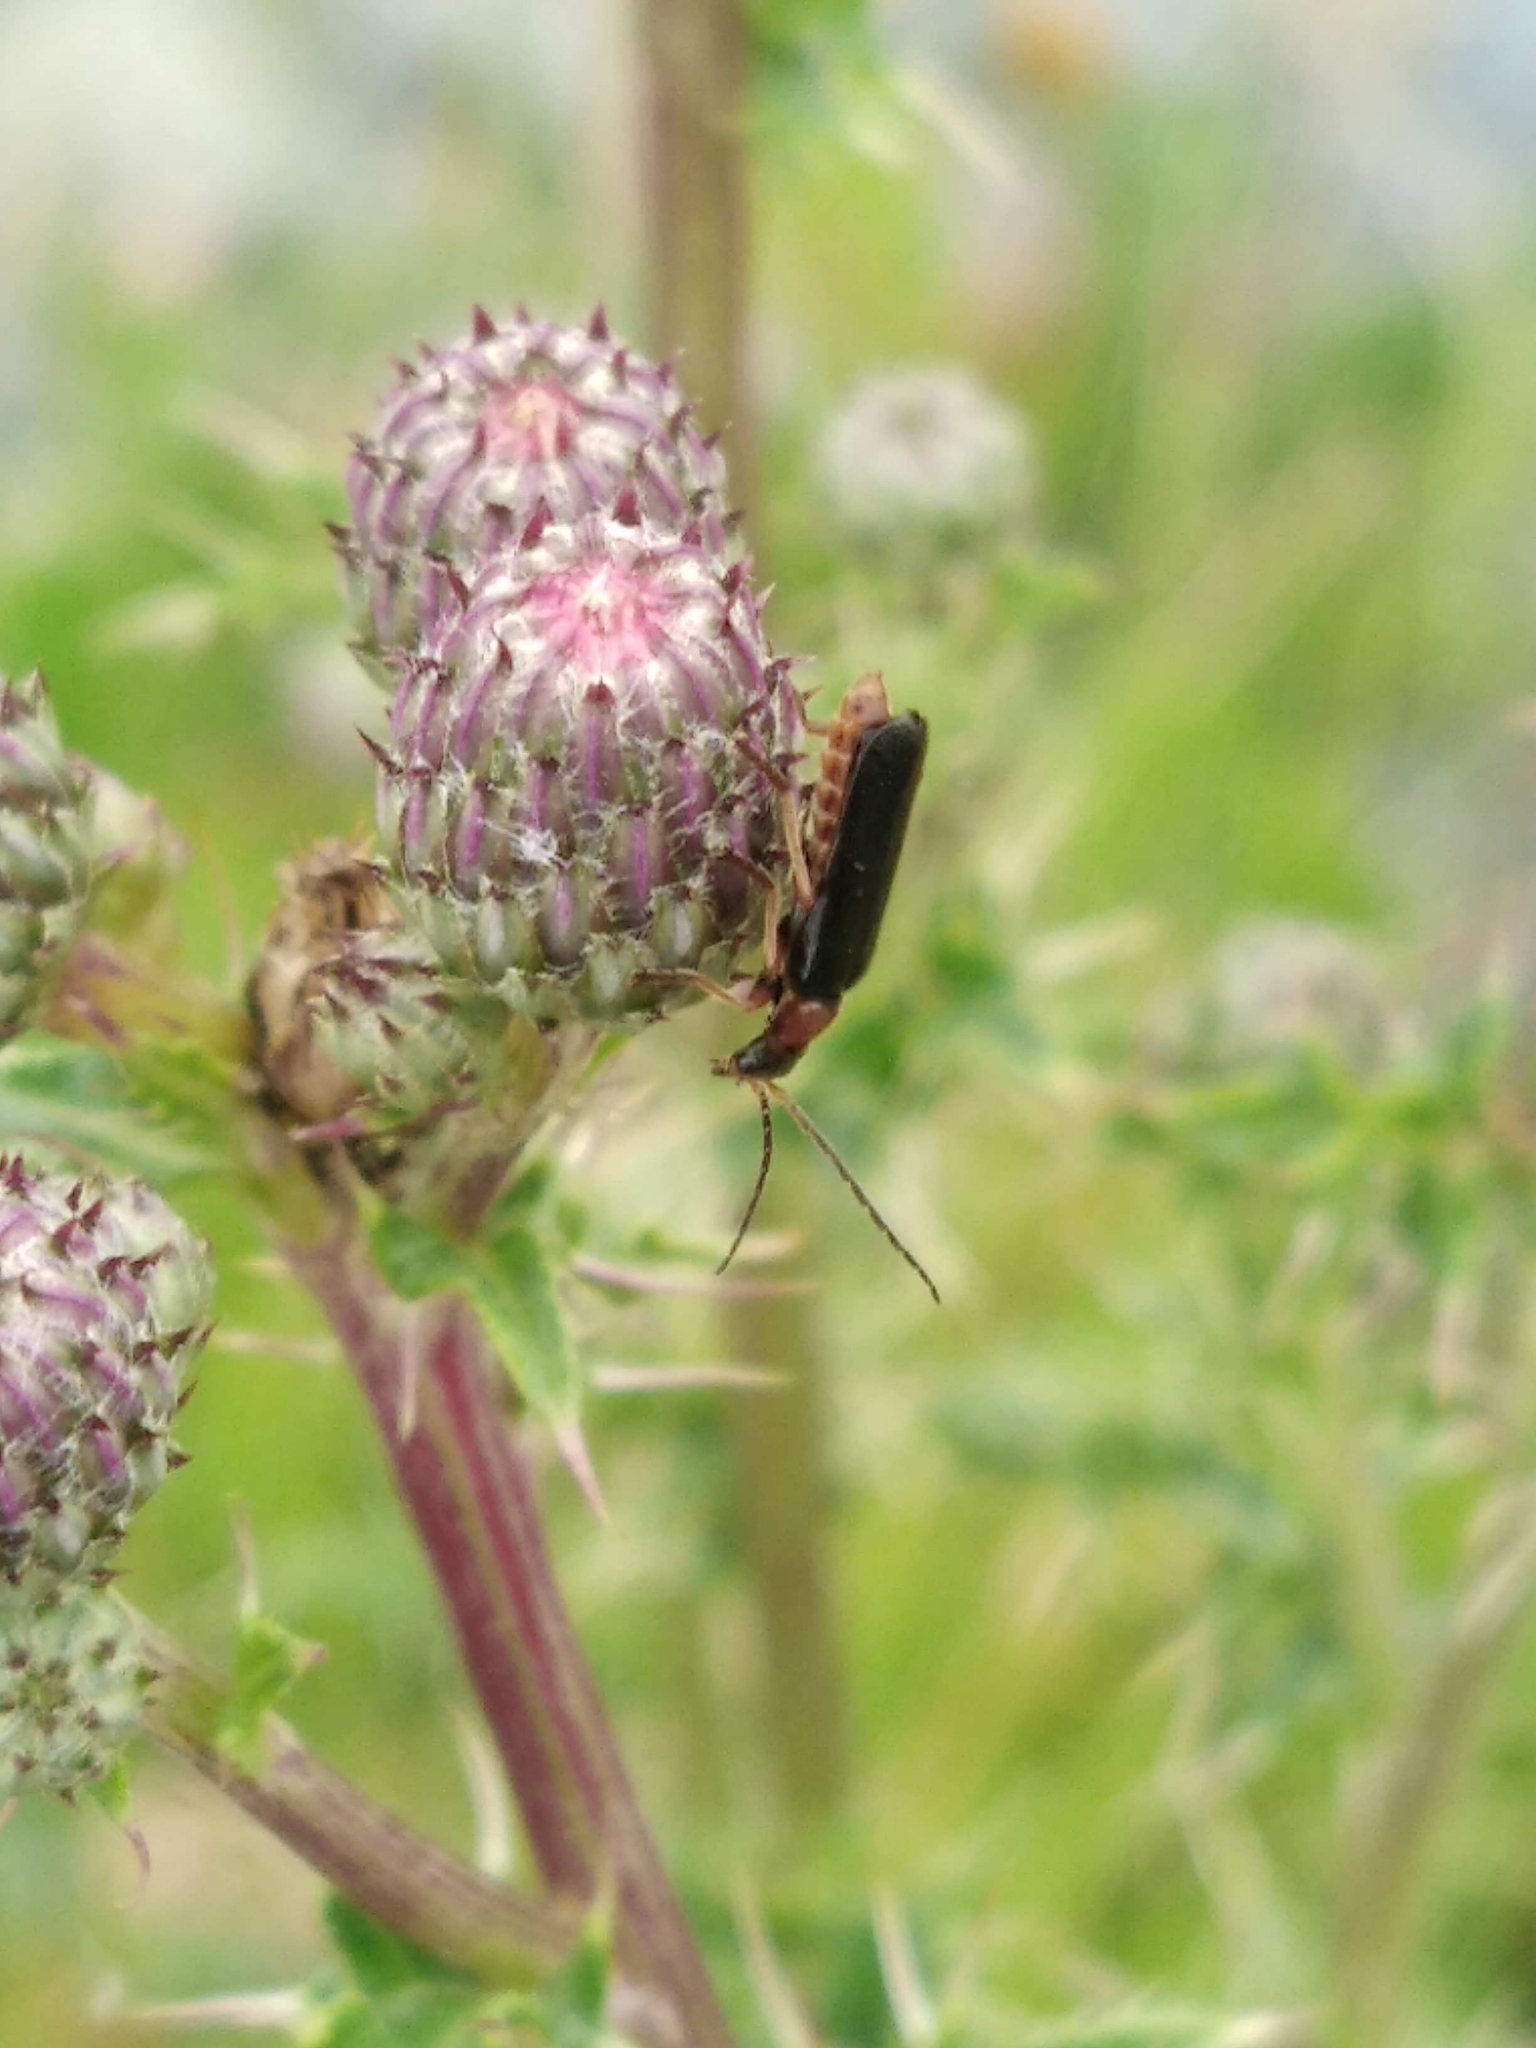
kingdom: Animalia
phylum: Arthropoda
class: Insecta
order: Coleoptera
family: Cantharidae
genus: Cantharis
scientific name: Cantharis flavilabris
